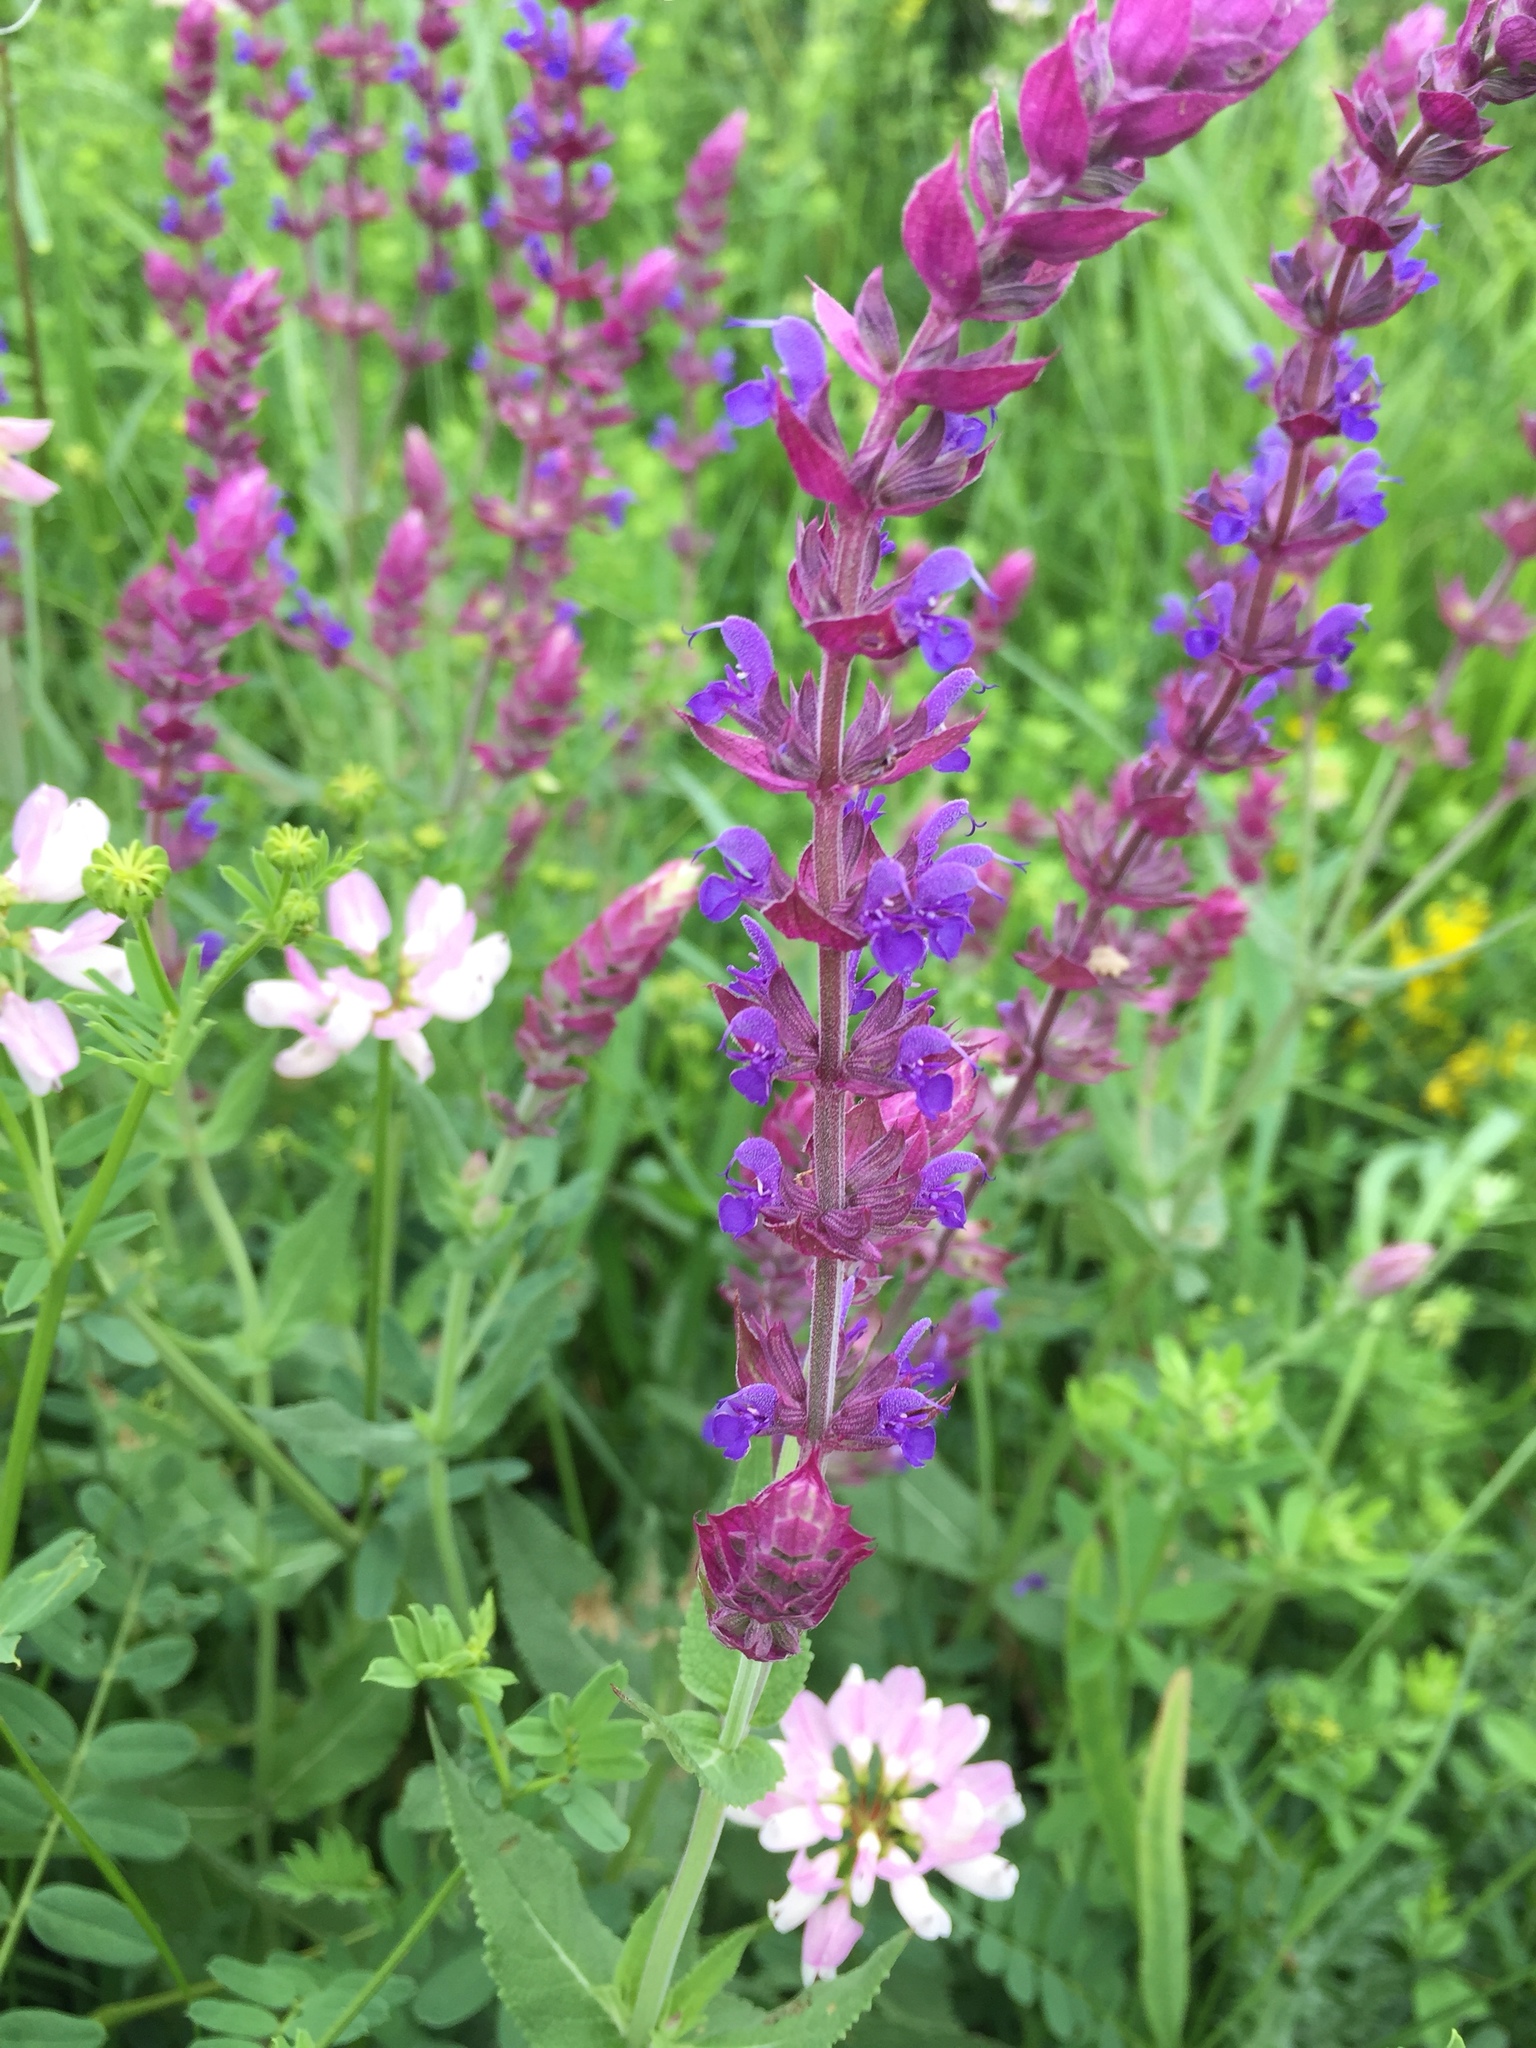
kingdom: Plantae
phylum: Tracheophyta
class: Magnoliopsida
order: Lamiales
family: Lamiaceae
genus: Salvia
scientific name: Salvia nemorosa
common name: Balkan clary
